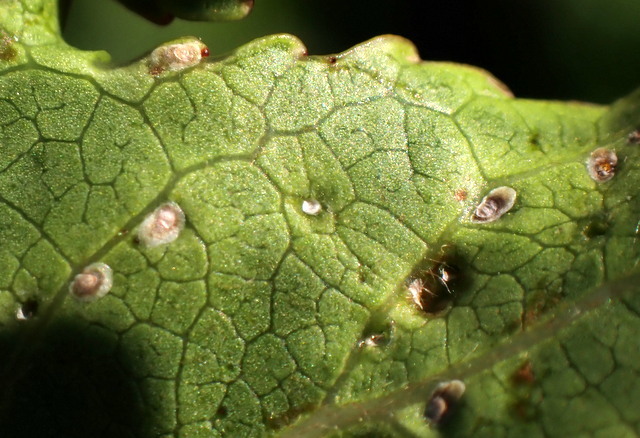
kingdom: Animalia
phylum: Arthropoda
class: Insecta
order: Hemiptera
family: Diaspididae
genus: Diaspidiotus
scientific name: Diaspidiotus liquidambaris
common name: Sweet gum scale
